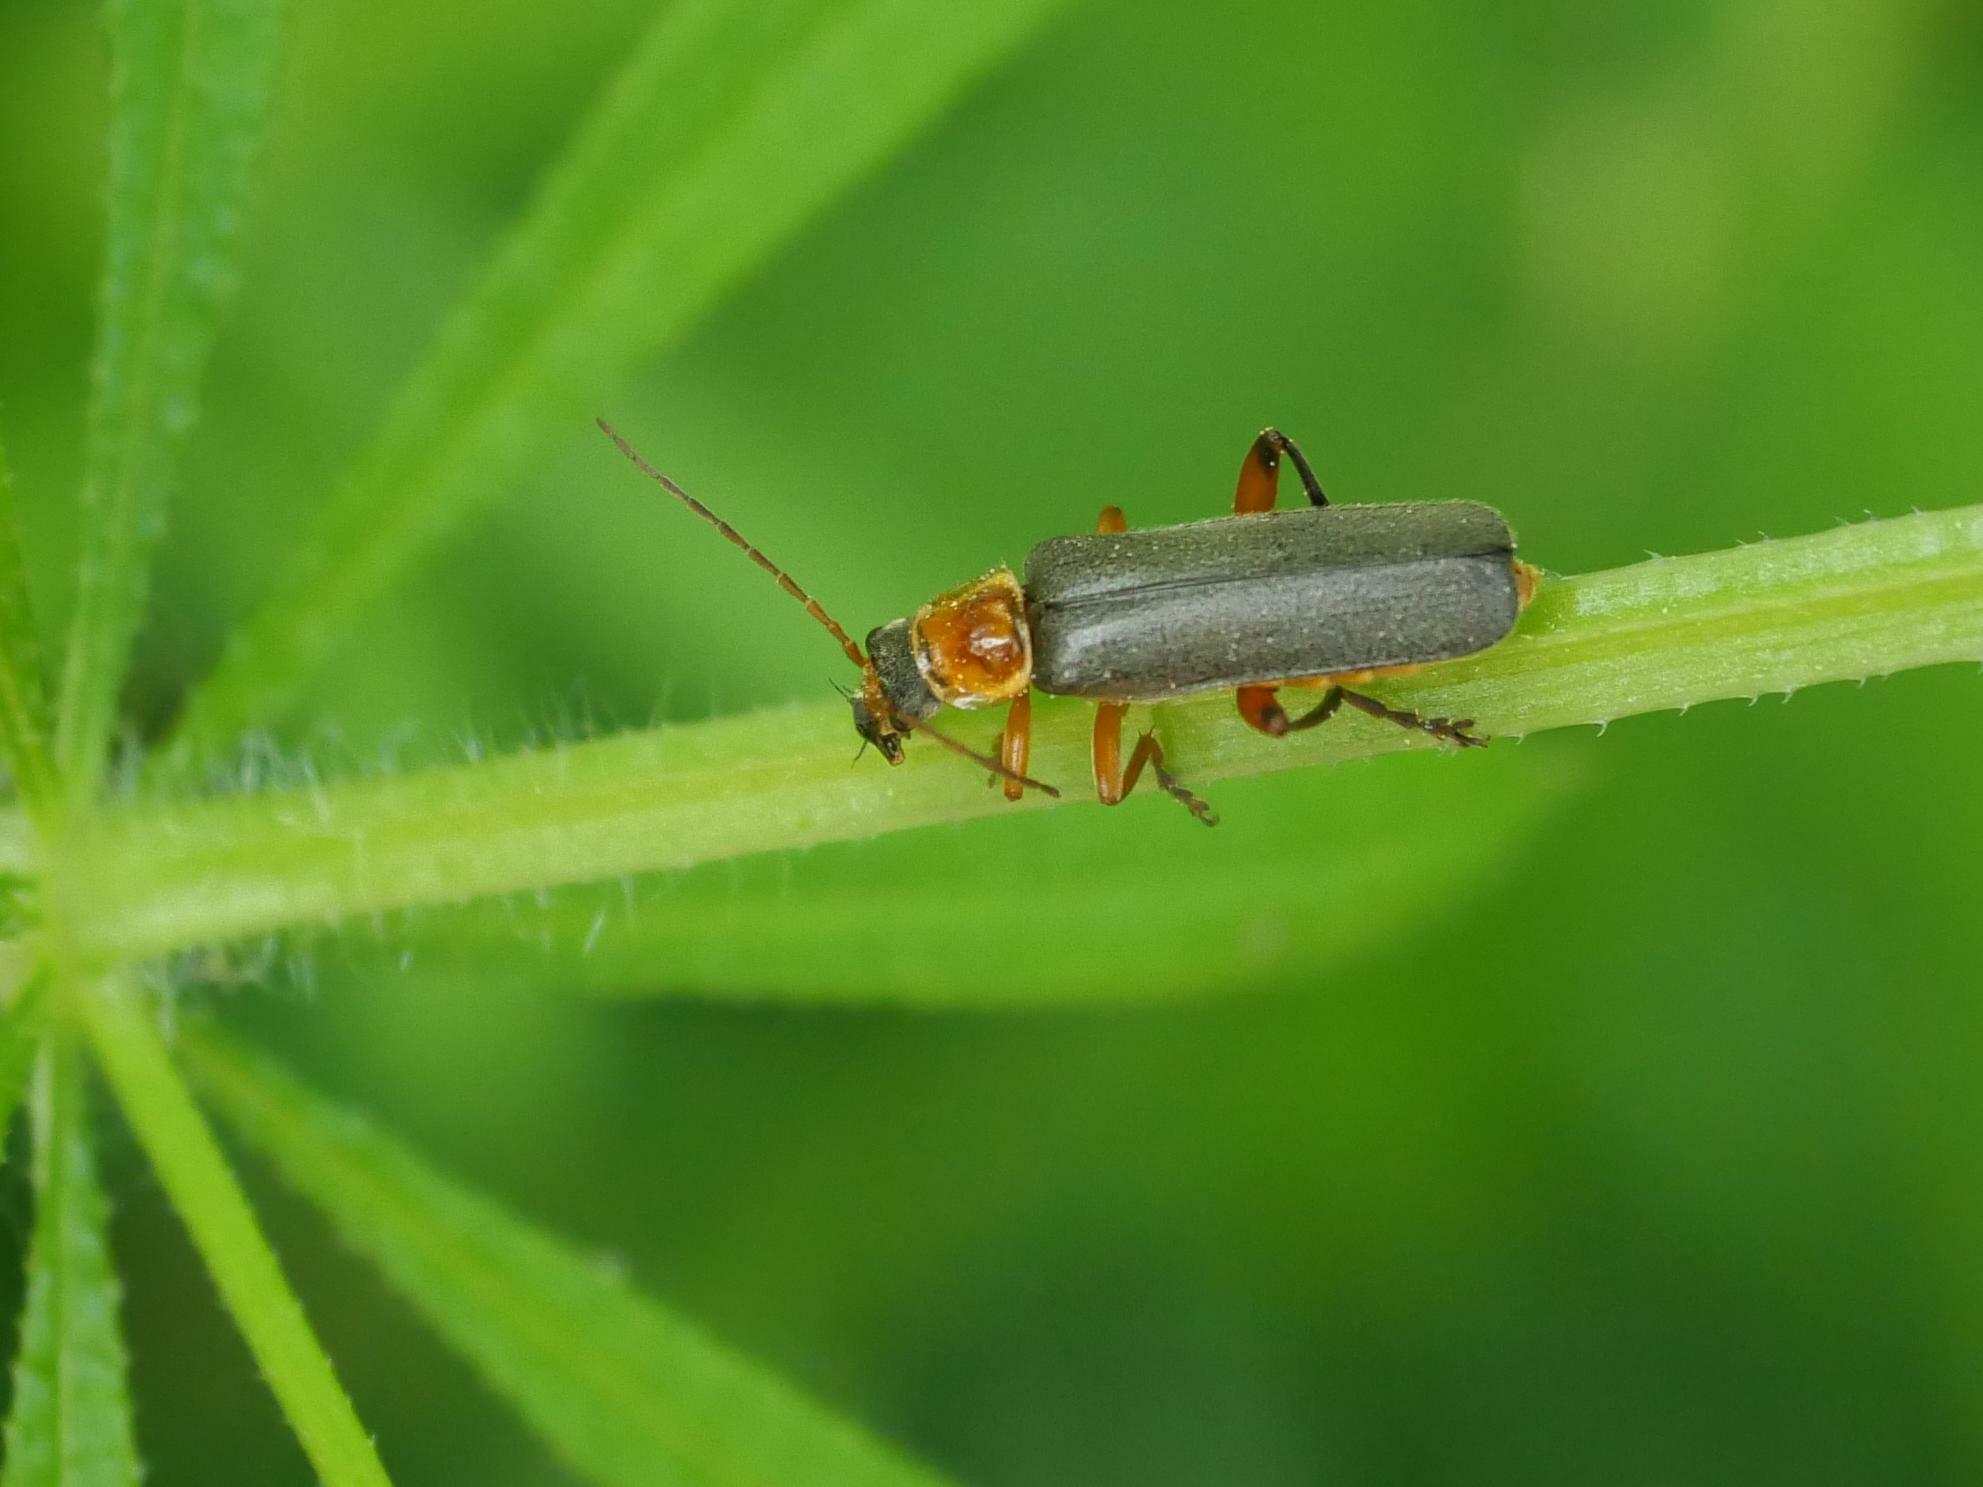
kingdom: Animalia
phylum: Arthropoda
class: Insecta
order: Coleoptera
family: Cantharidae
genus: Cantharis
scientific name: Cantharis nigricans
